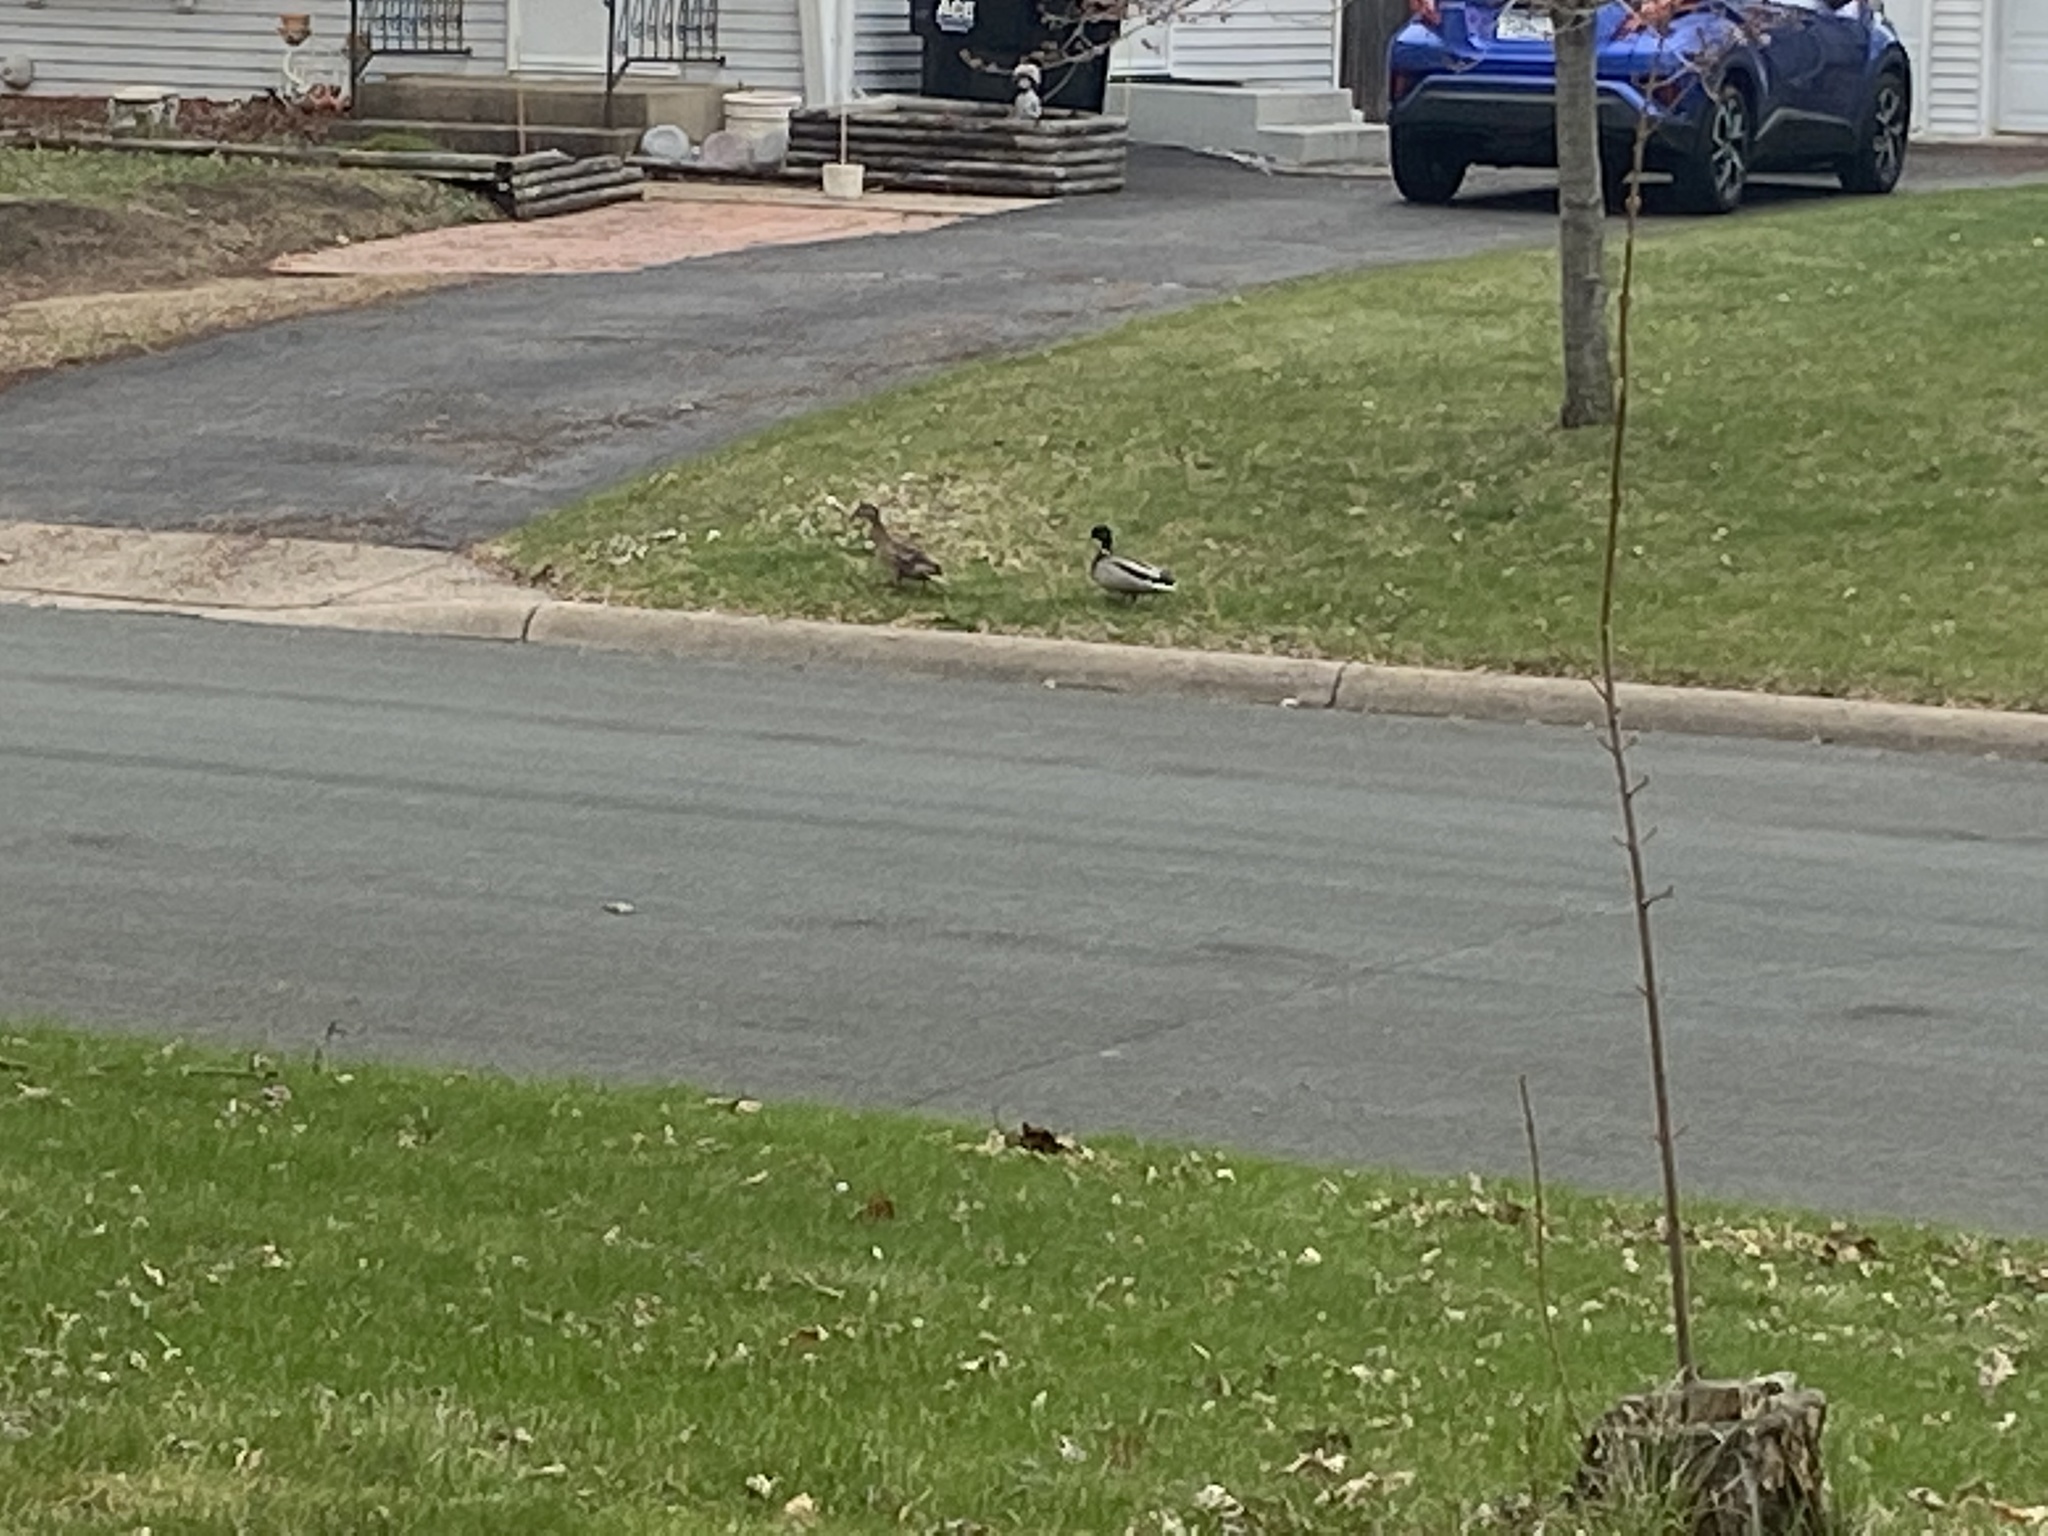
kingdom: Animalia
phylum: Chordata
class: Aves
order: Anseriformes
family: Anatidae
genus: Anas
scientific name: Anas platyrhynchos
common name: Mallard
